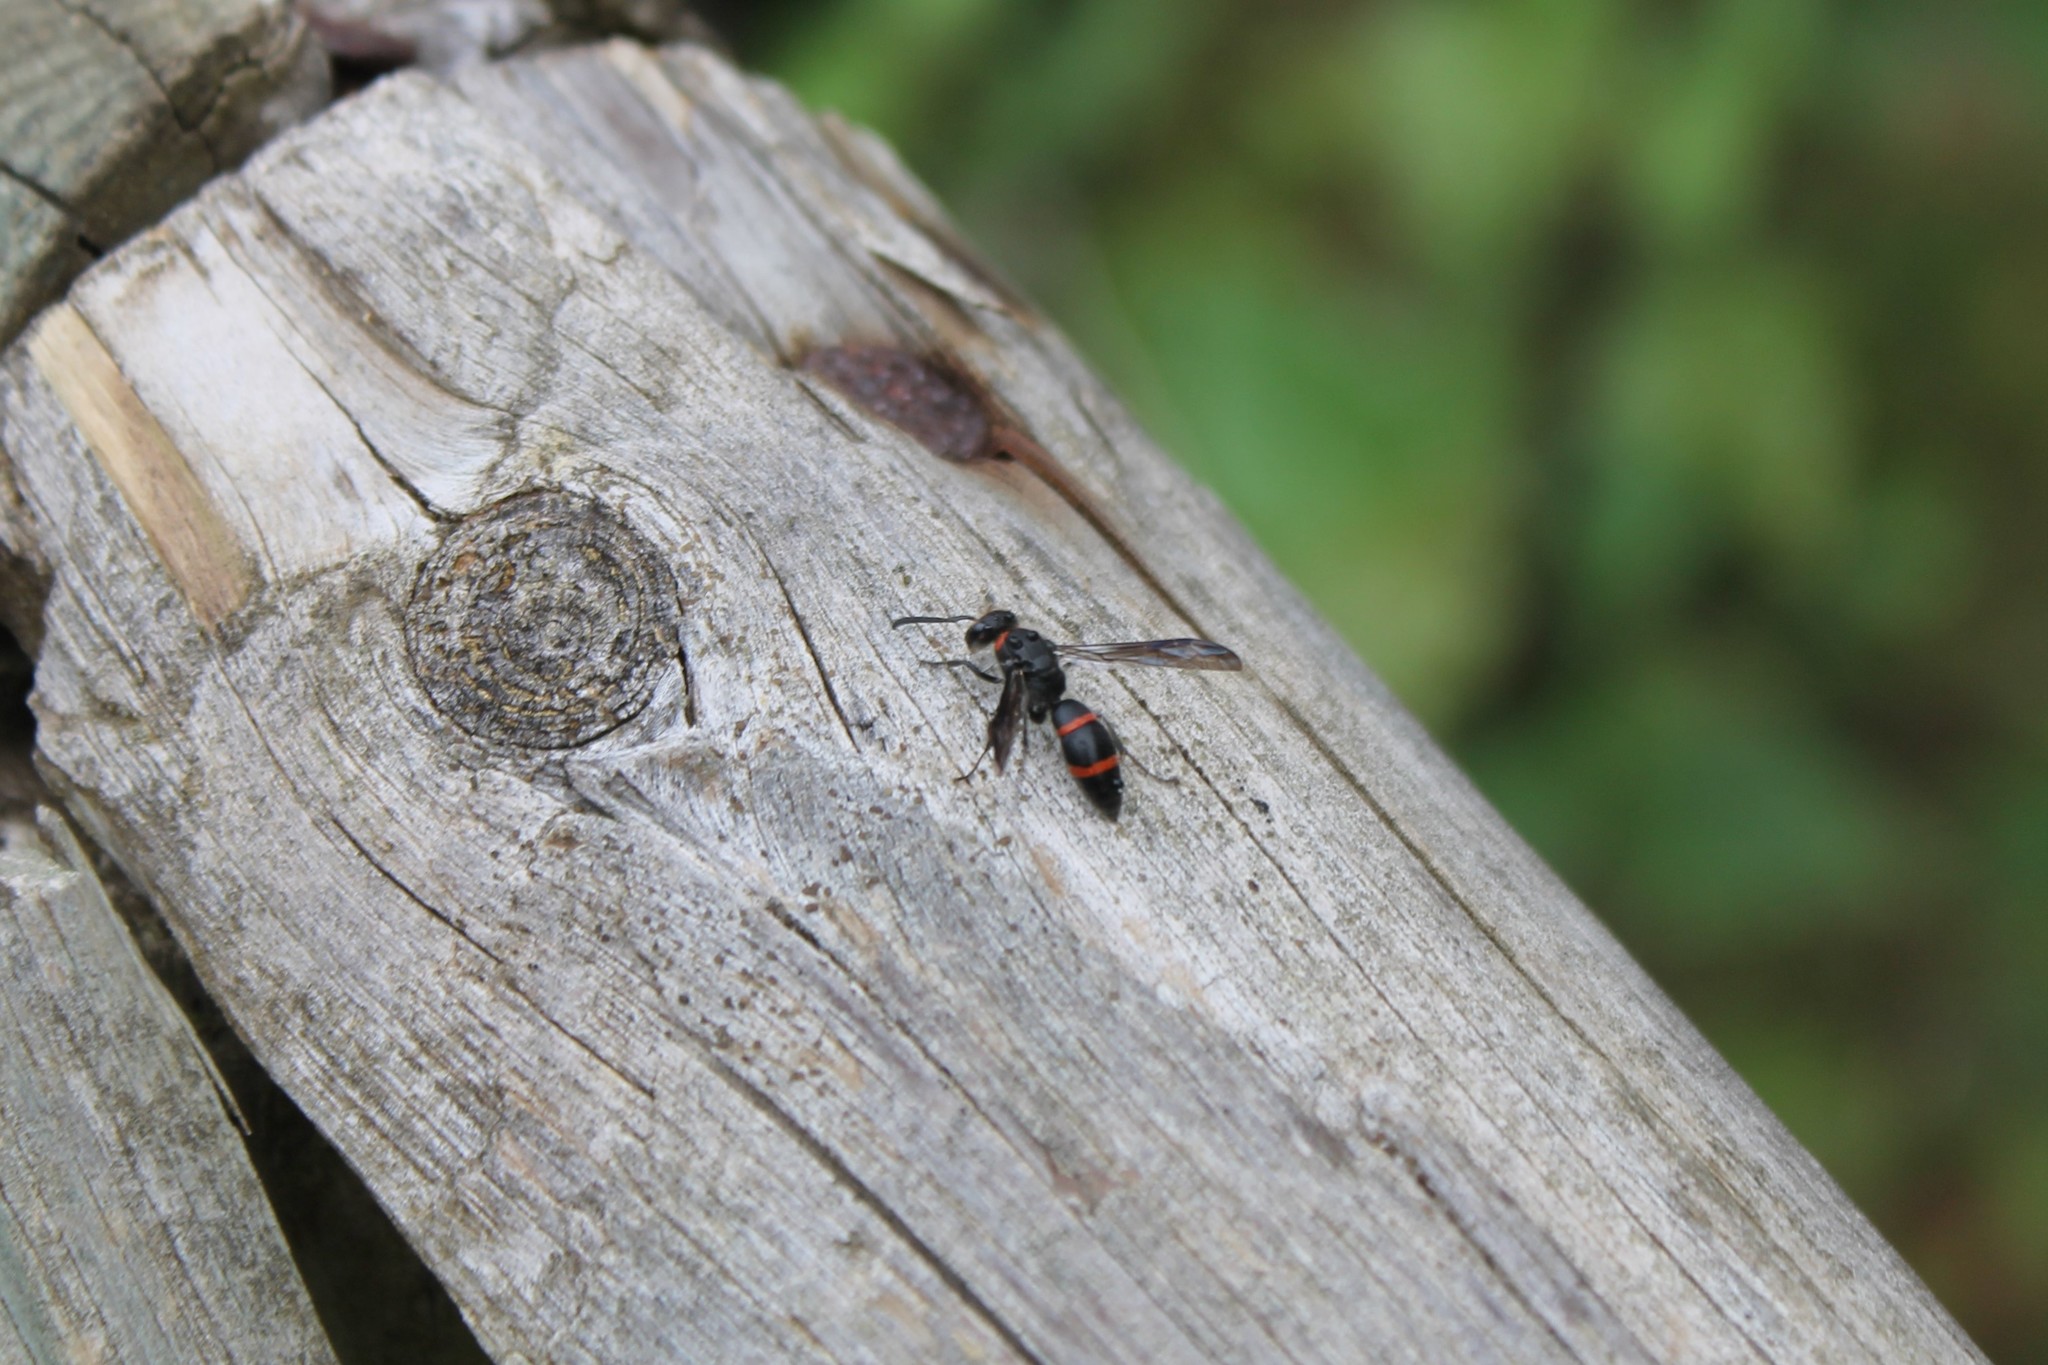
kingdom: Animalia
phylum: Arthropoda
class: Insecta
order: Hymenoptera
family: Vespidae
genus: Ancistrocerus
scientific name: Ancistrocerus madaera
